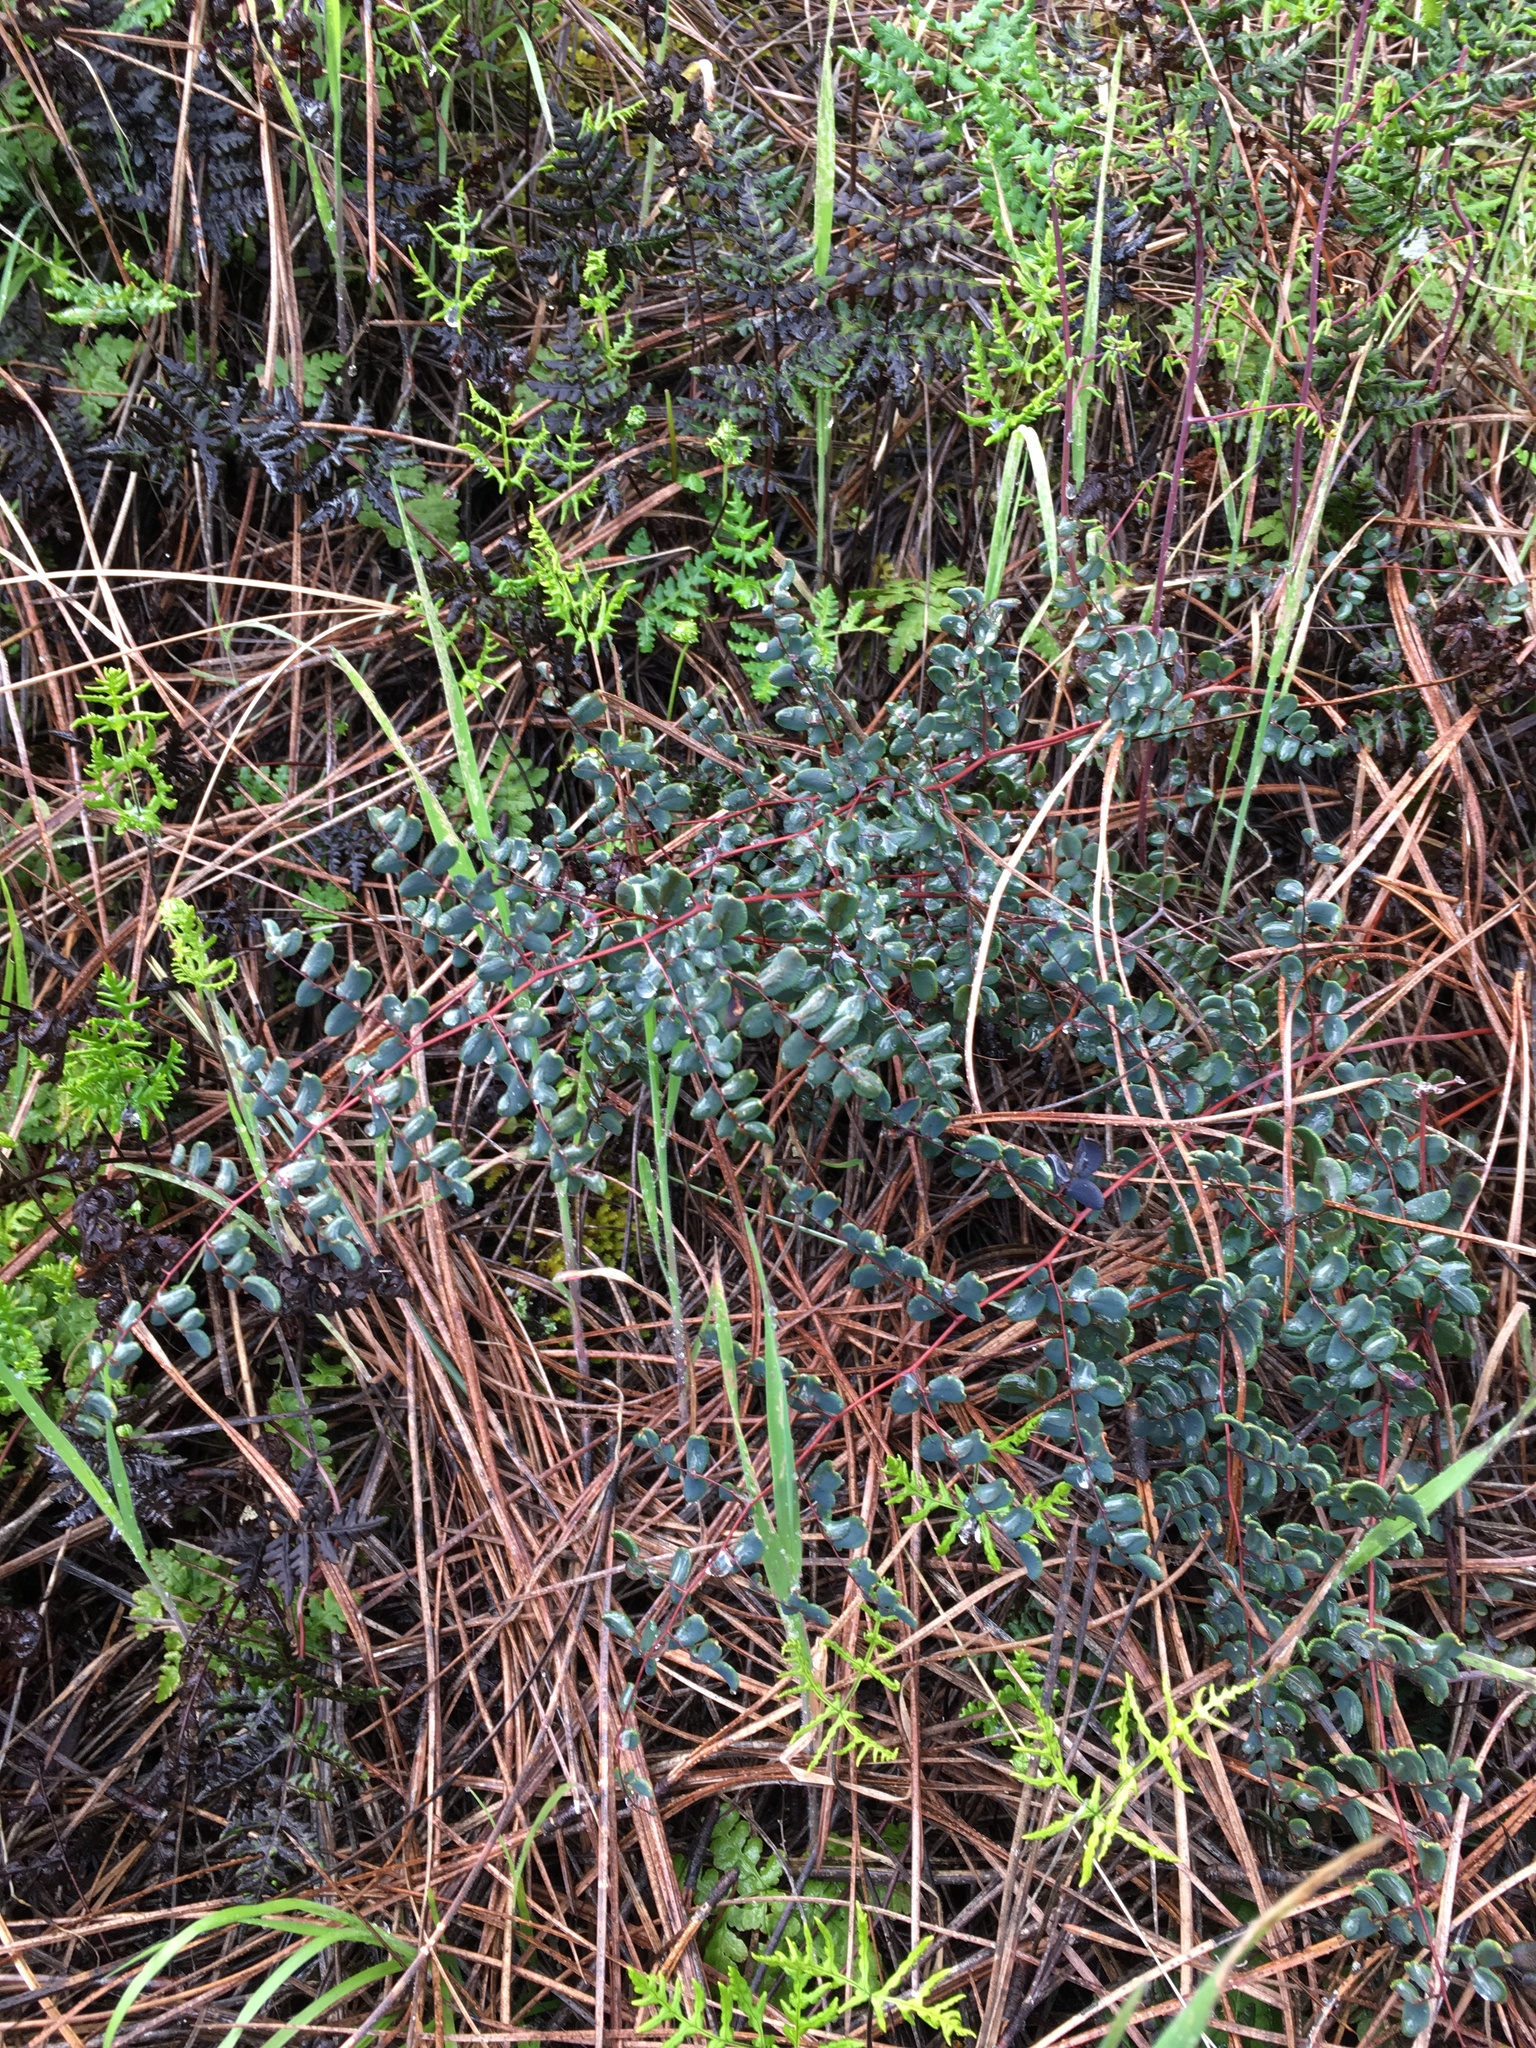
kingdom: Plantae
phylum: Tracheophyta
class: Polypodiopsida
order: Polypodiales
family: Pteridaceae
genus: Pellaea
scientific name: Pellaea andromedifolia
